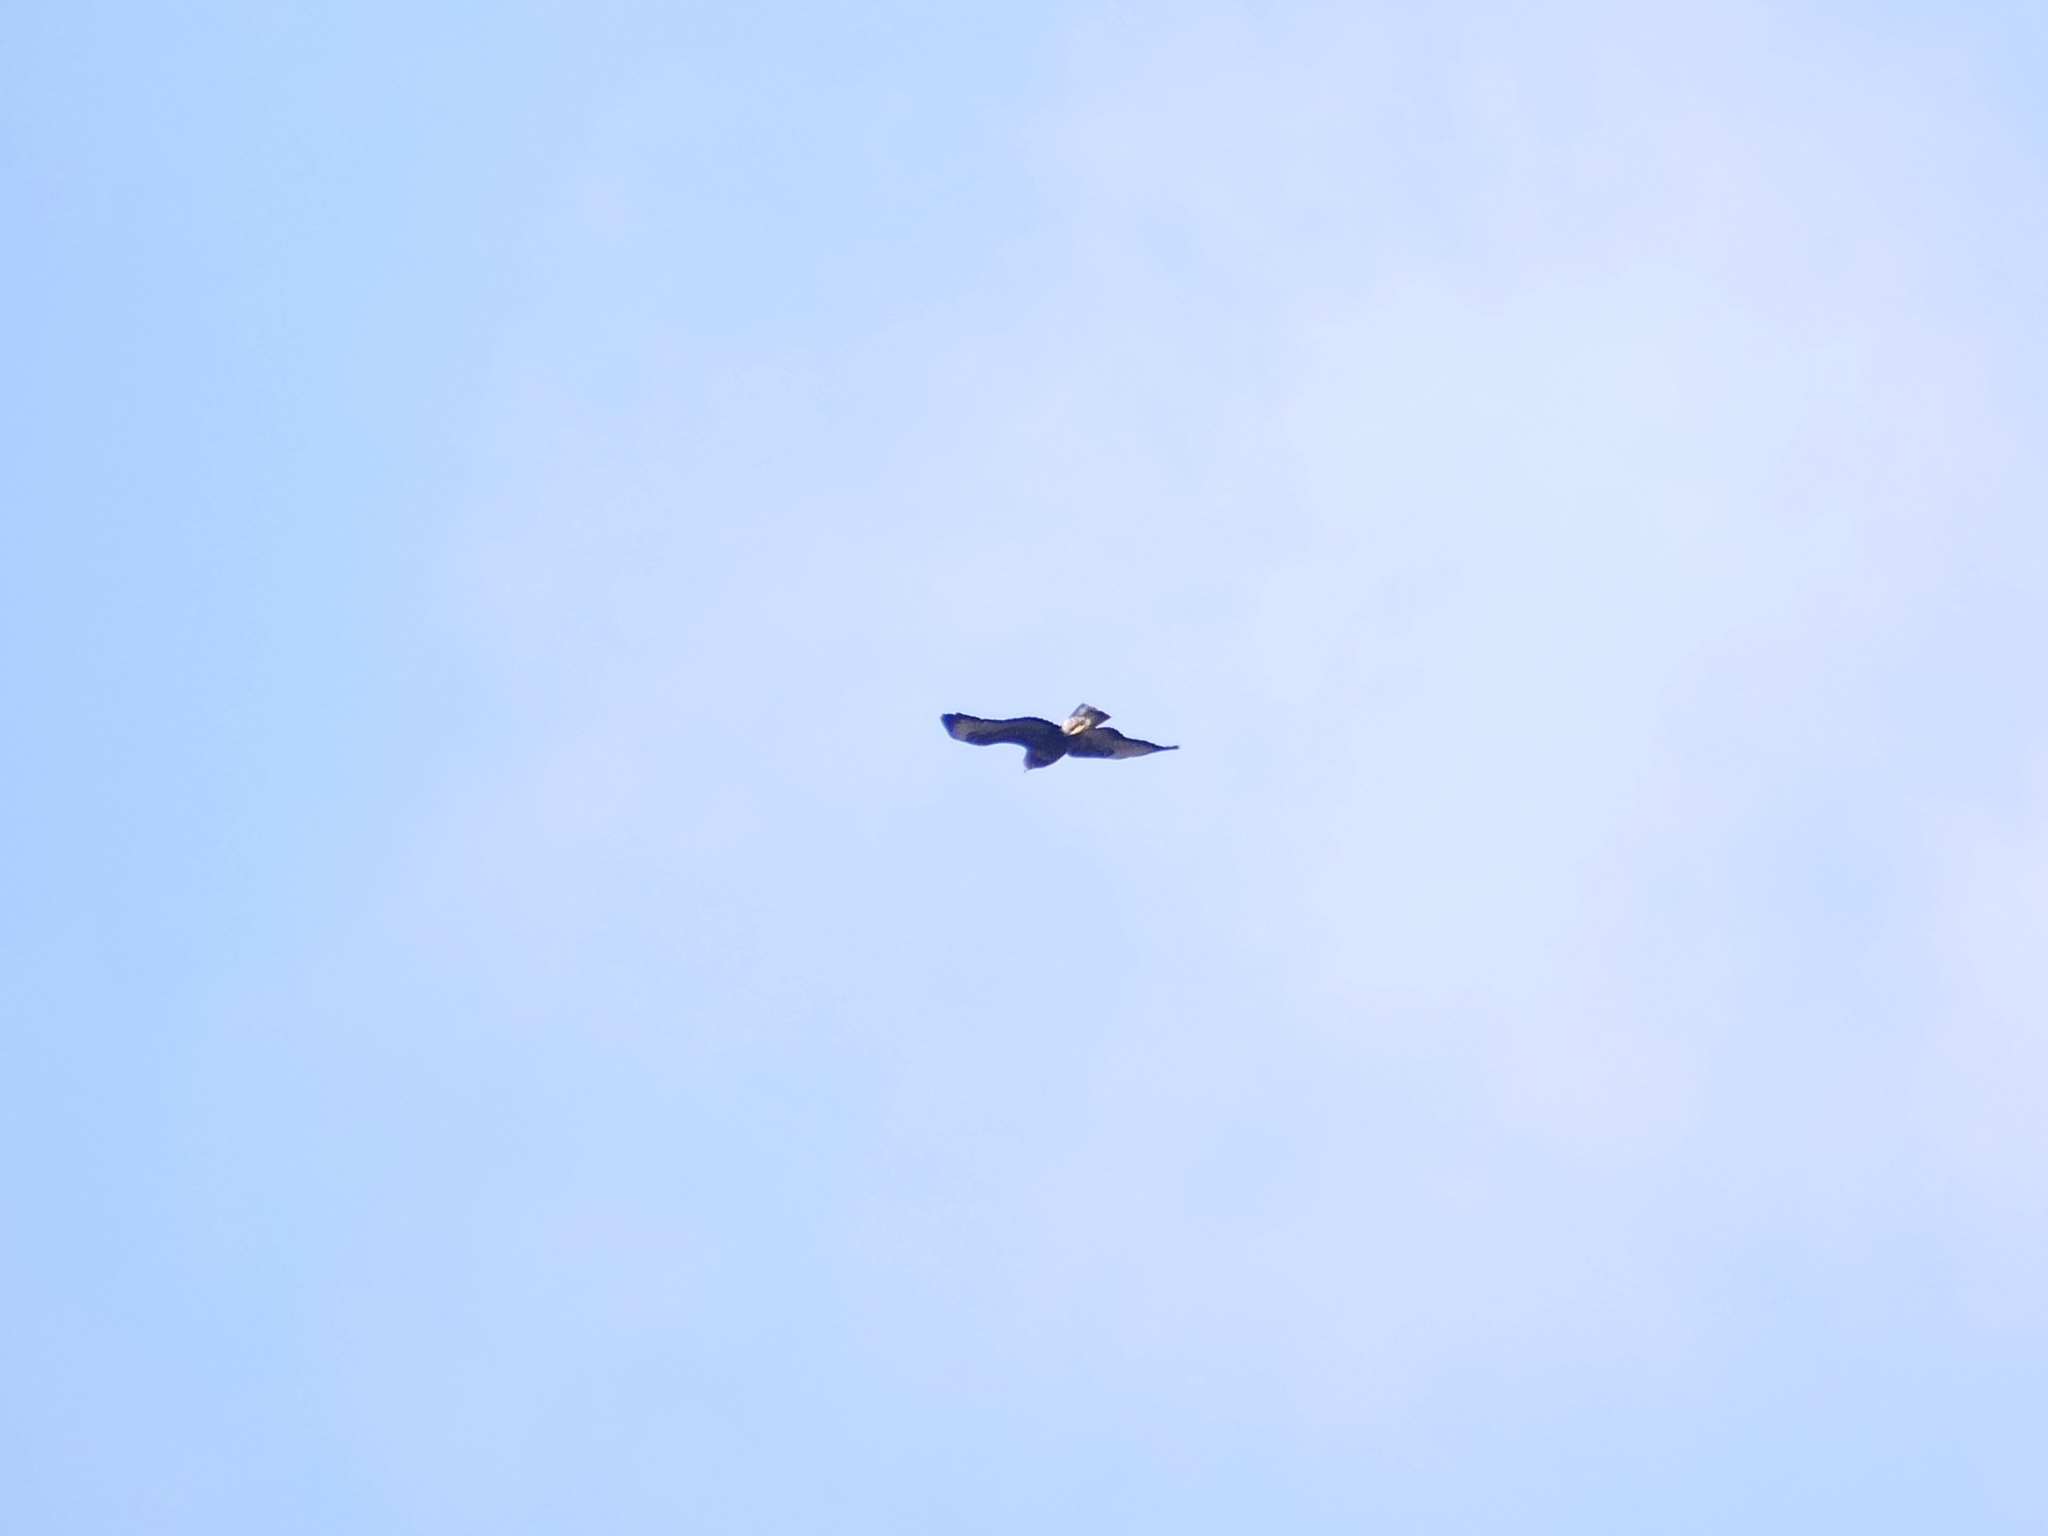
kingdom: Animalia
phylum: Chordata
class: Aves
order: Accipitriformes
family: Accipitridae
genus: Buteo
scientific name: Buteo buteo
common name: Common buzzard
